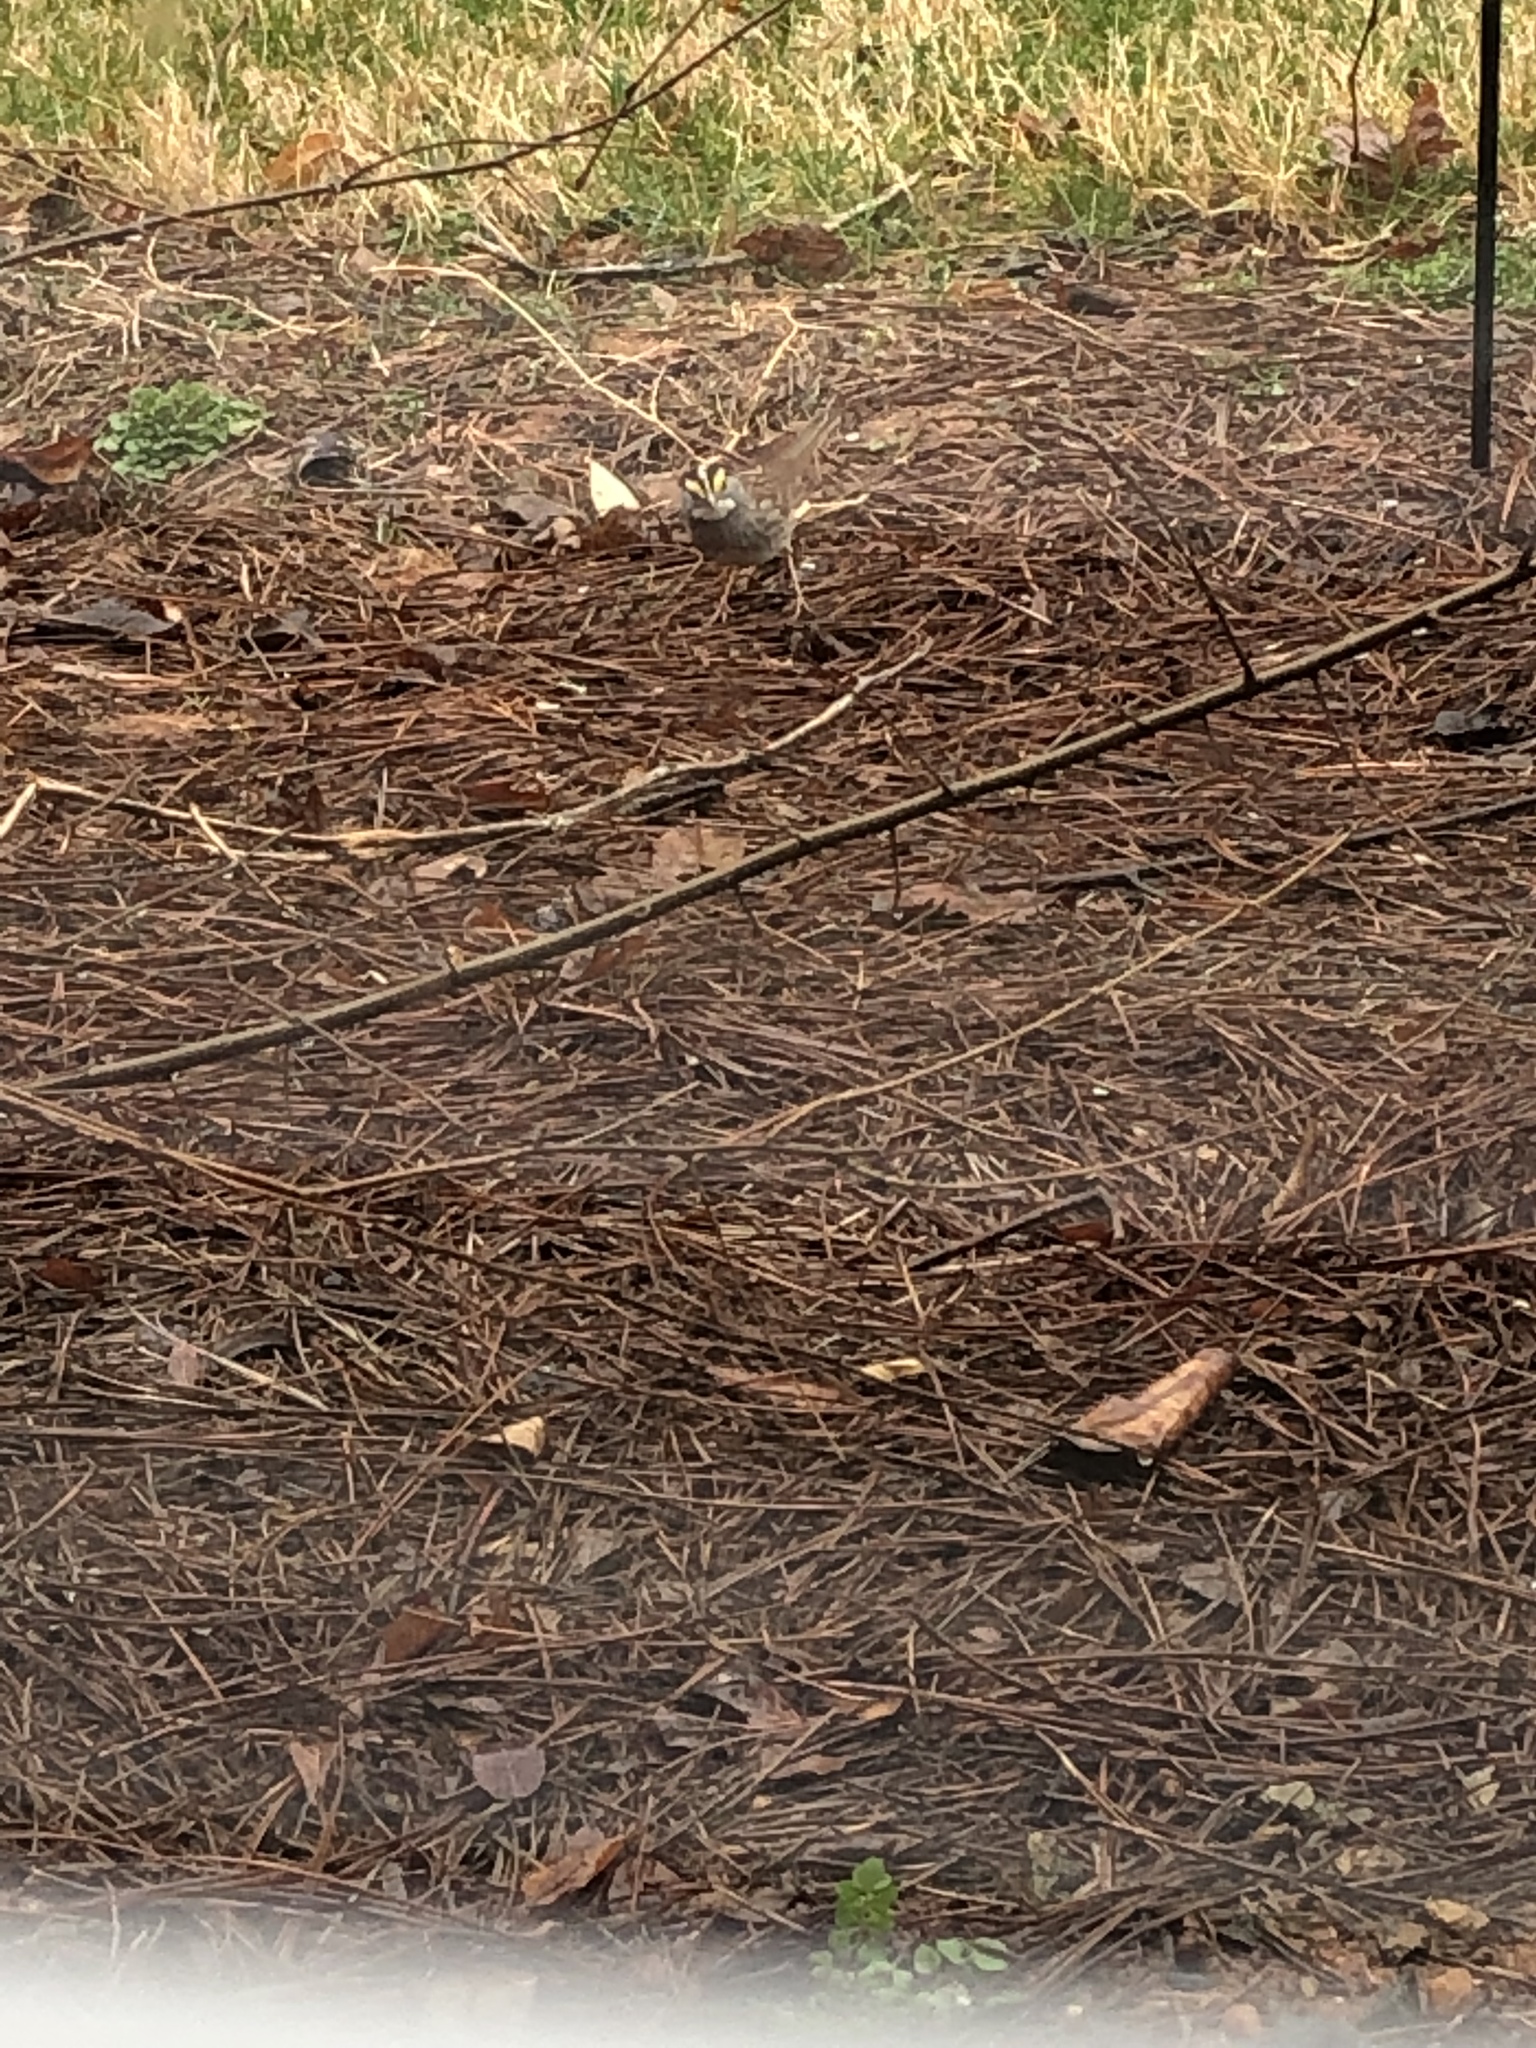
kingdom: Animalia
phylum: Chordata
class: Aves
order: Passeriformes
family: Passerellidae
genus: Zonotrichia
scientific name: Zonotrichia albicollis
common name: White-throated sparrow
